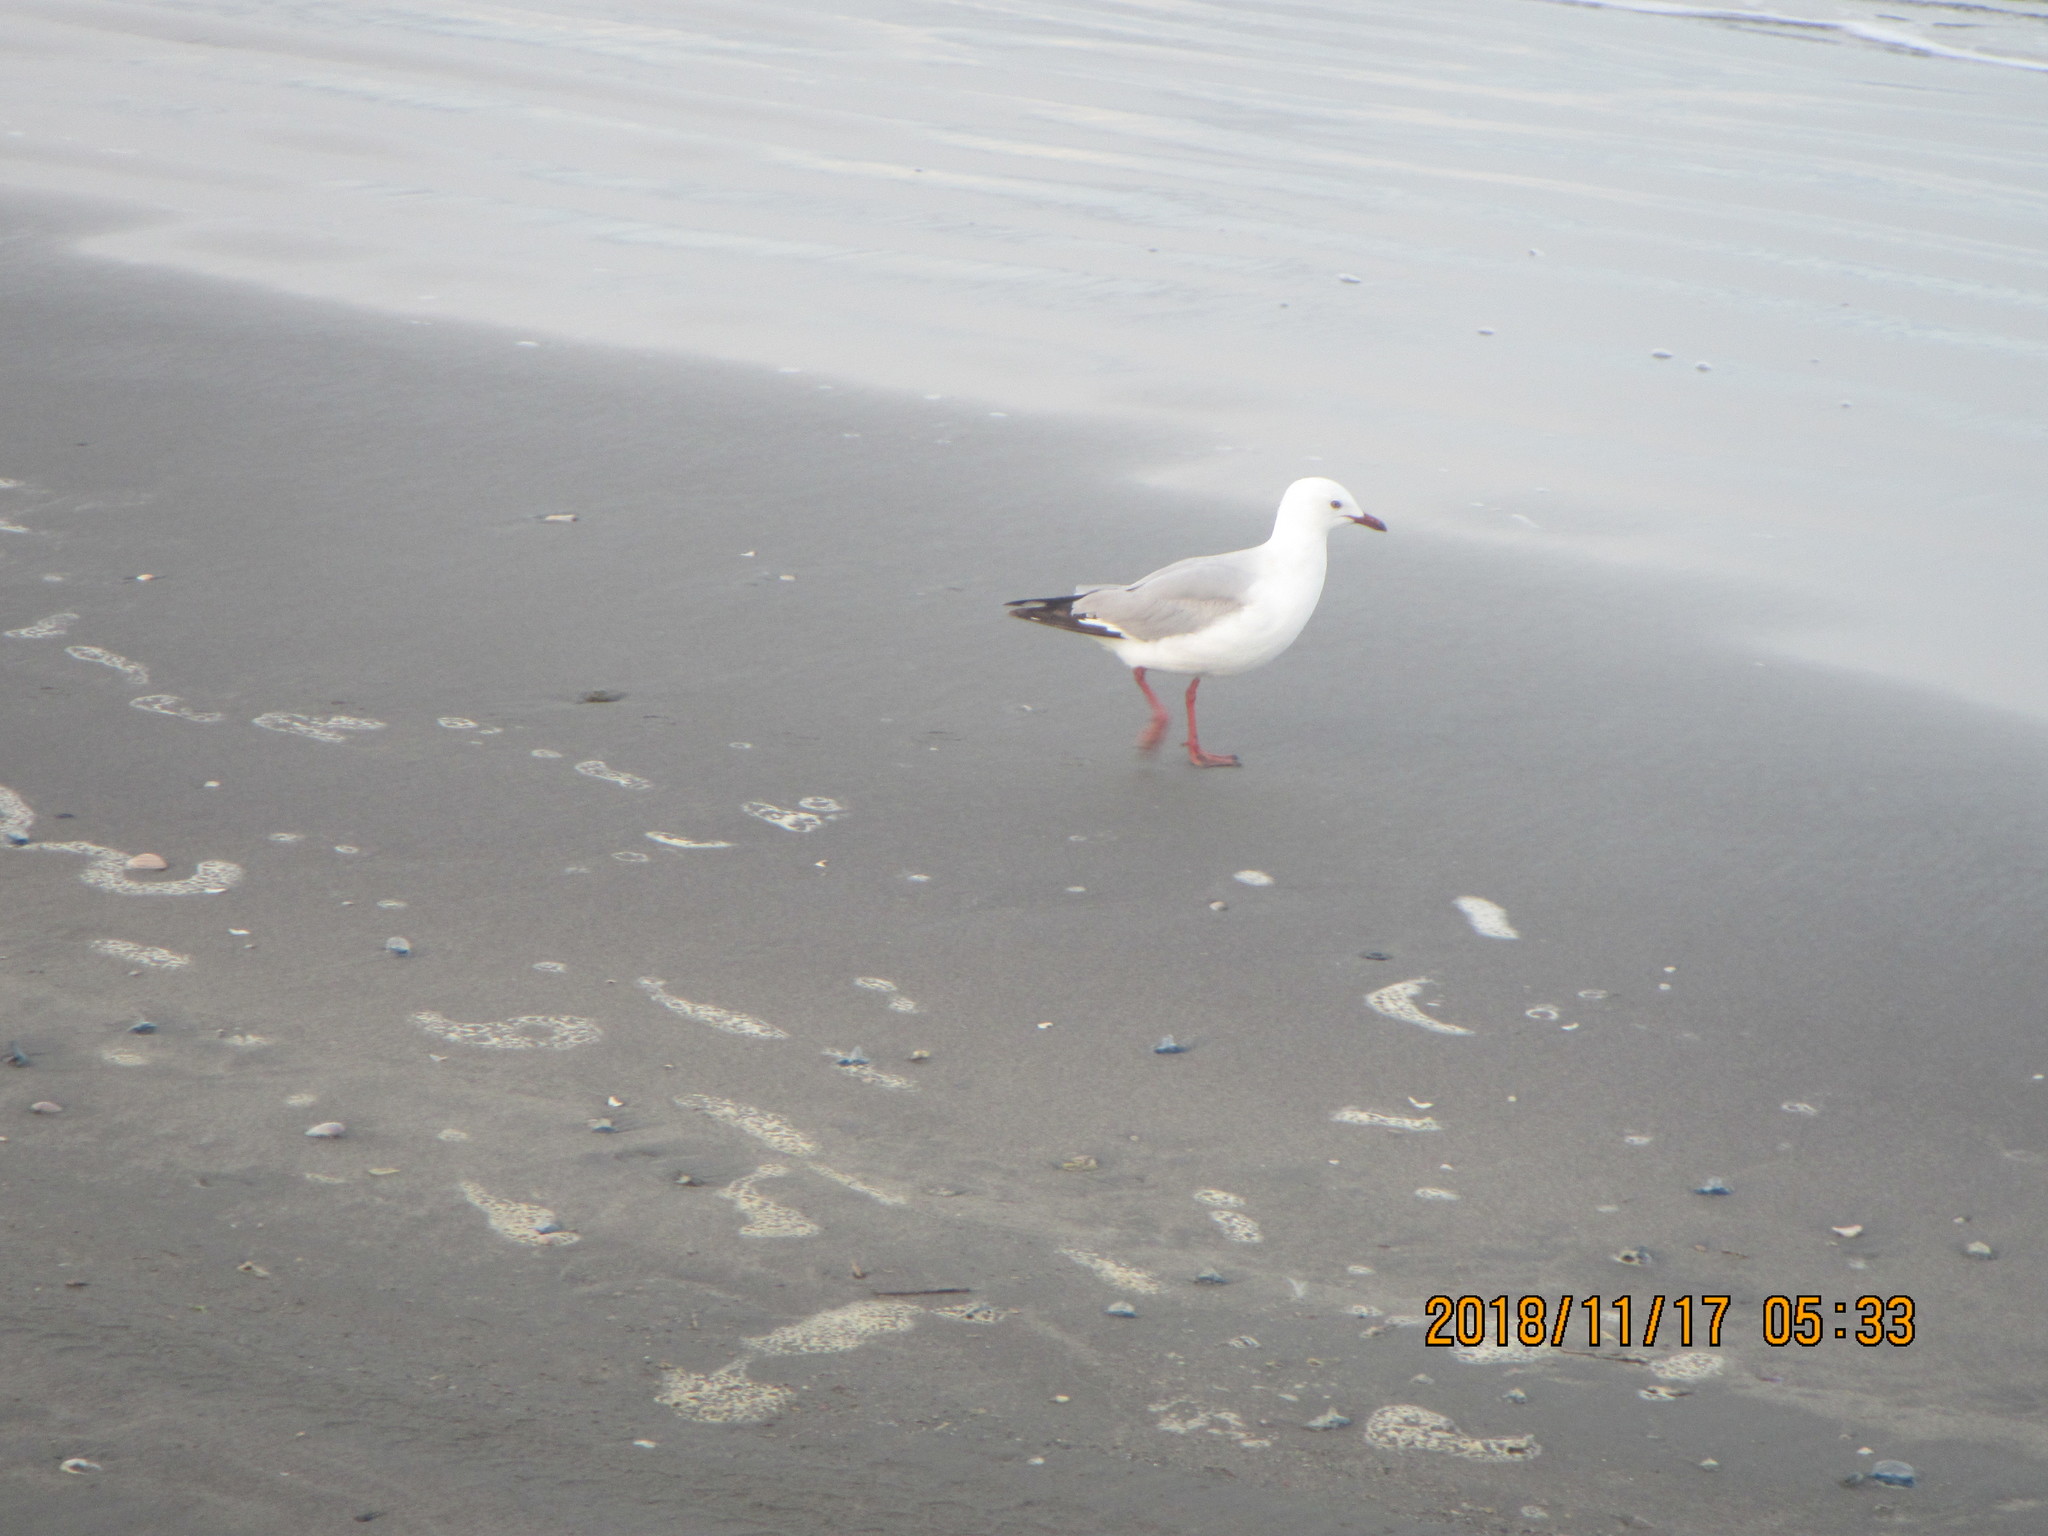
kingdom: Animalia
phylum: Chordata
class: Aves
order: Charadriiformes
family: Laridae
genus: Chroicocephalus
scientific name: Chroicocephalus novaehollandiae
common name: Silver gull
